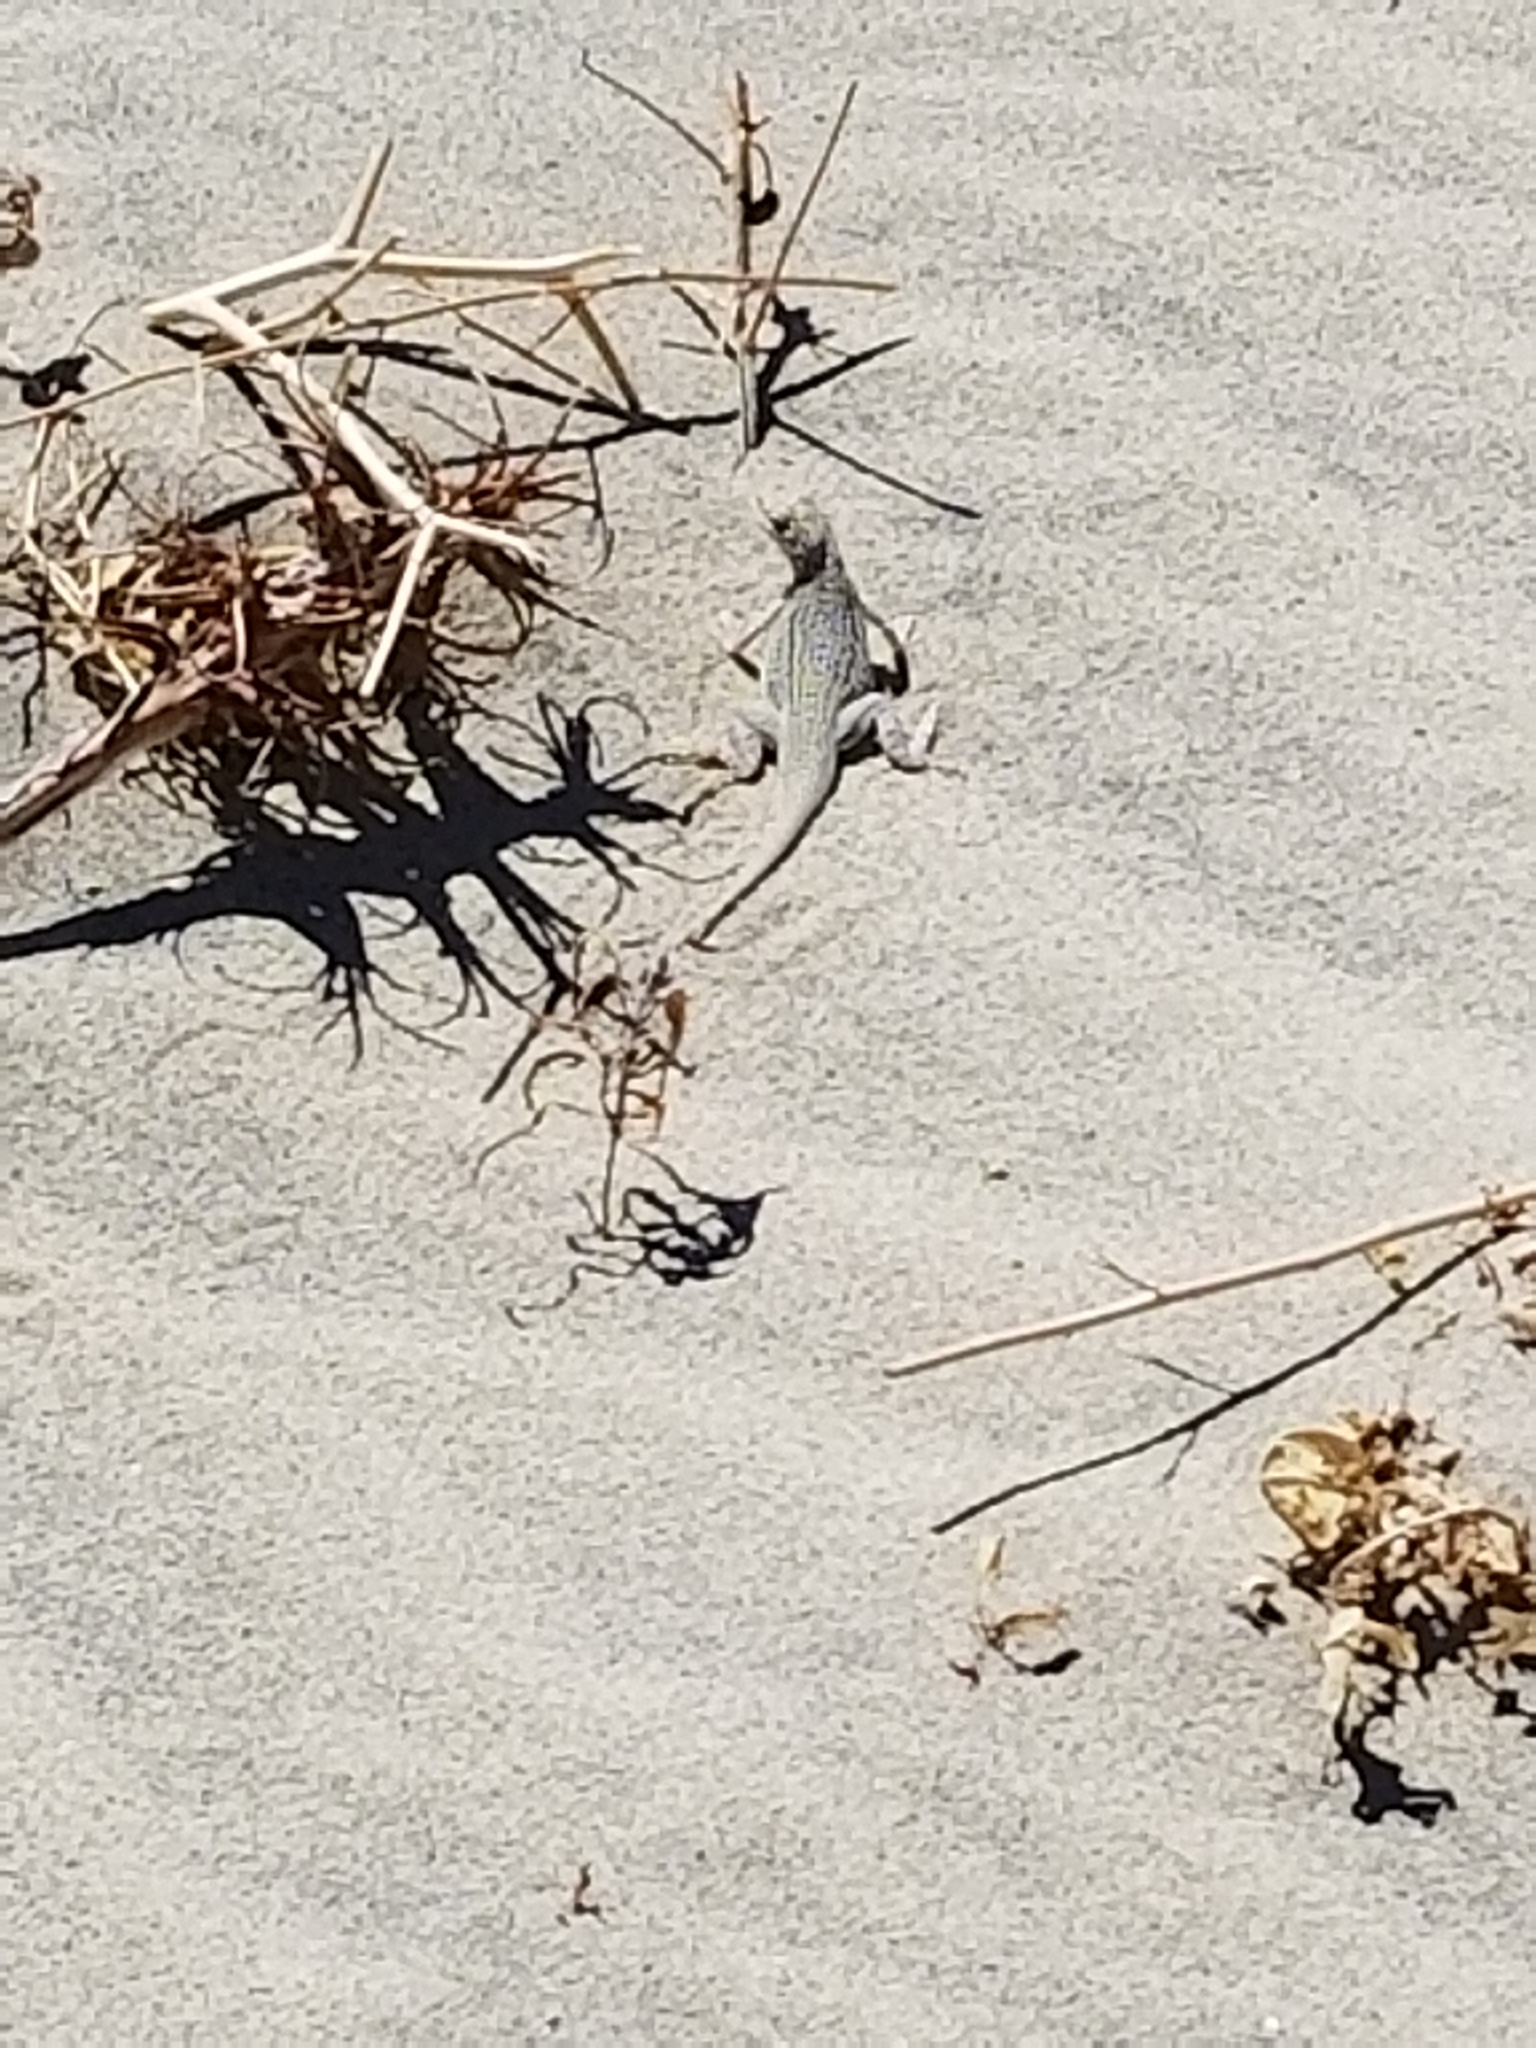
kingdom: Animalia
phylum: Chordata
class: Squamata
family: Phrynosomatidae
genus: Uma
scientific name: Uma inornata
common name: Coachella valley fringe-toed lizard
